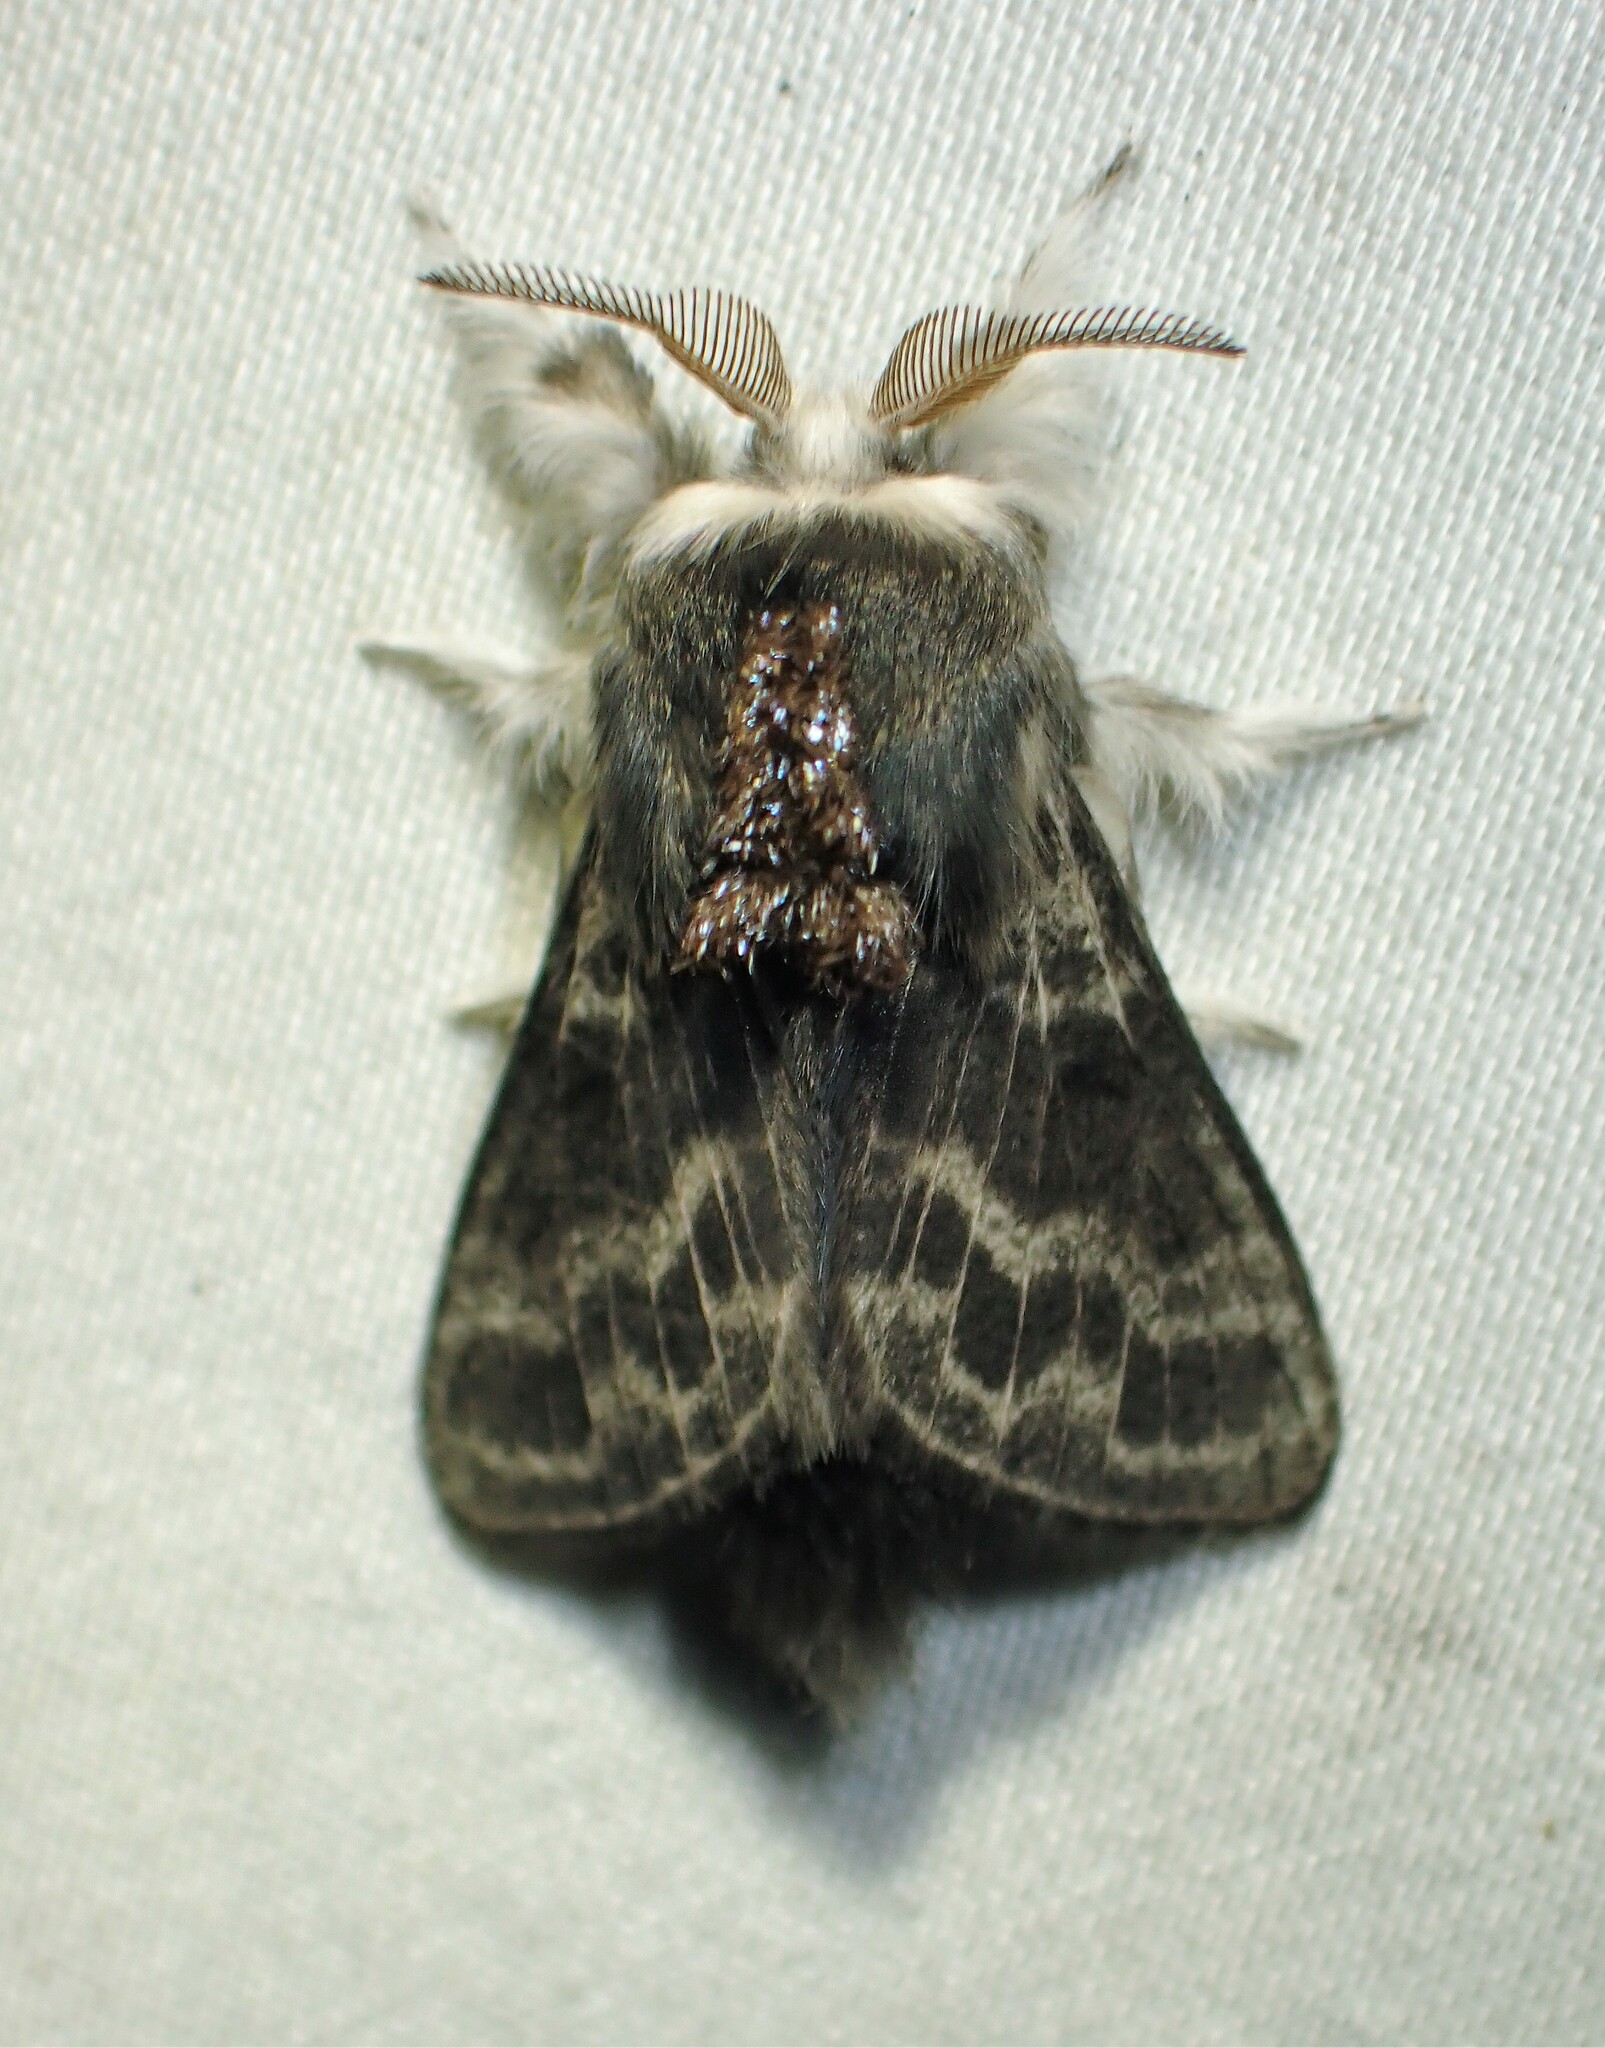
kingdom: Animalia
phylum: Arthropoda
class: Insecta
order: Lepidoptera
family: Lasiocampidae
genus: Tolype
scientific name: Tolype laricis
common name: Larch tolype moth
